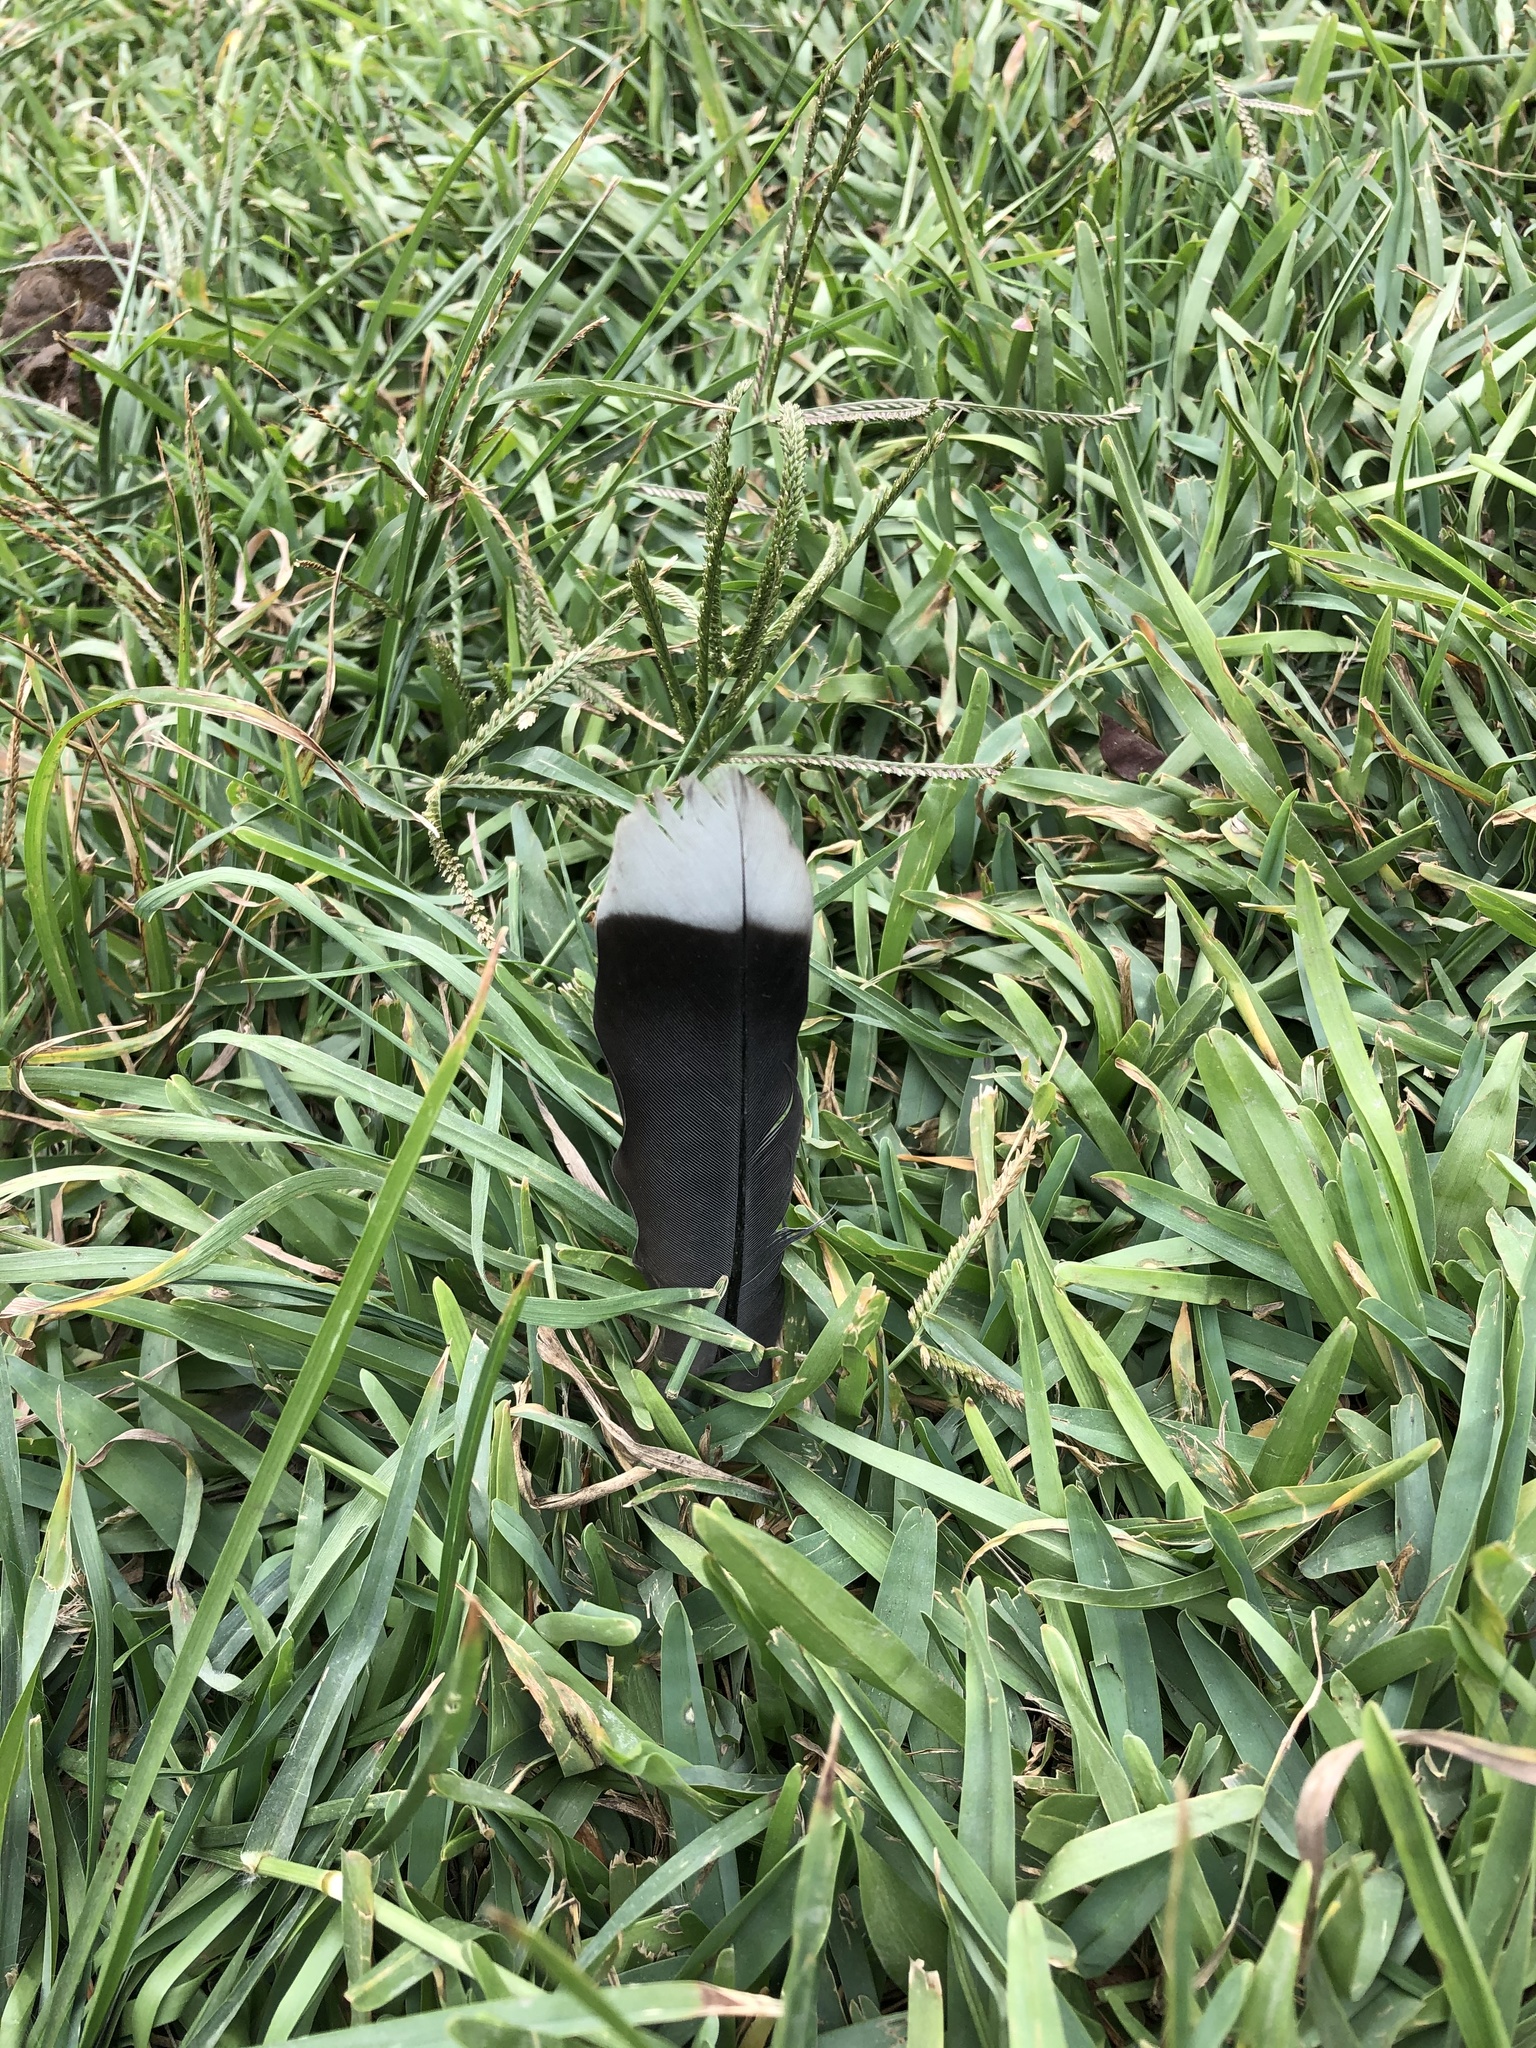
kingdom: Animalia
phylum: Chordata
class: Aves
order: Columbiformes
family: Columbidae
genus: Zenaida
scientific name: Zenaida meloda
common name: West peruvian dove
